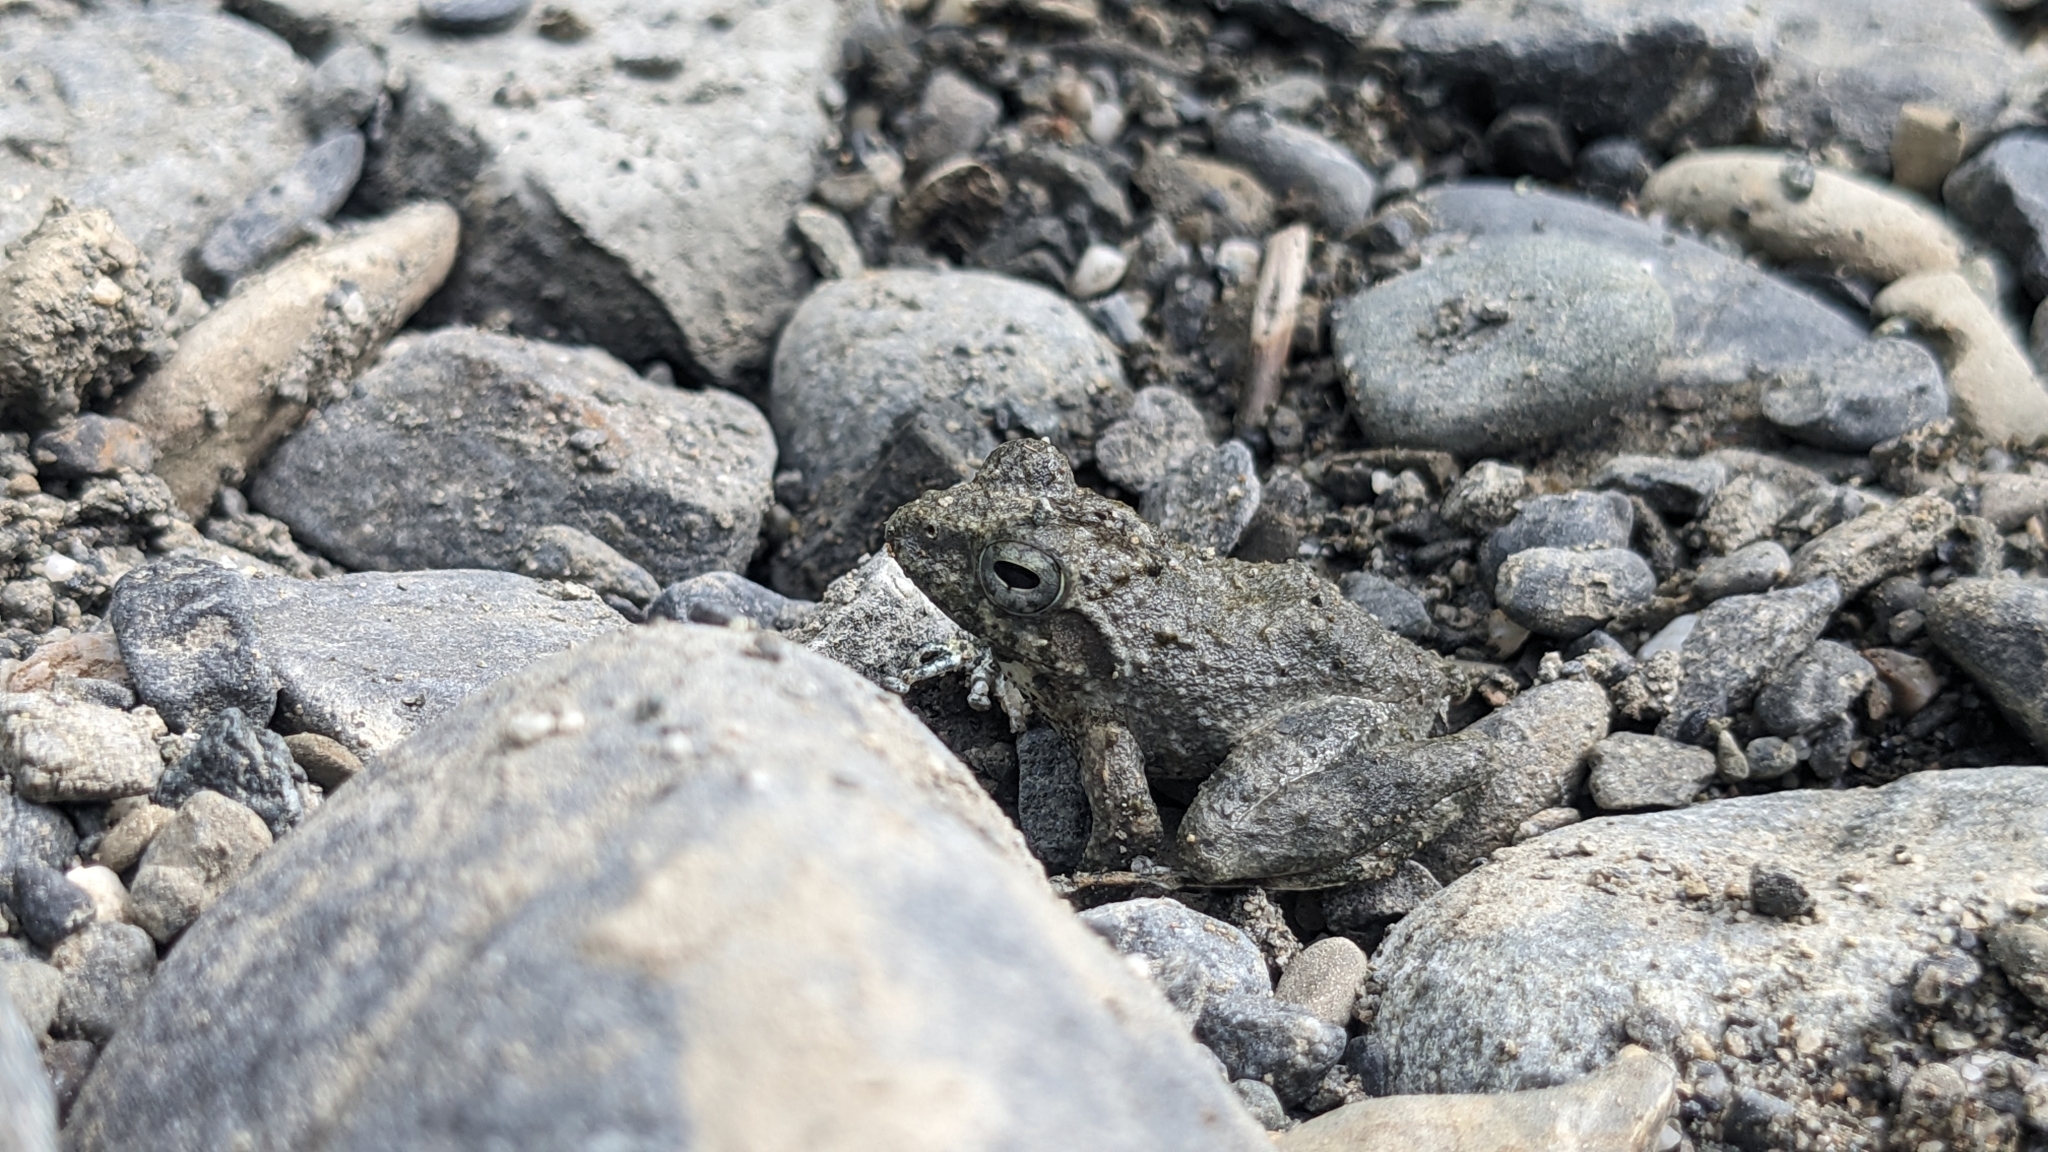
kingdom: Animalia
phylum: Chordata
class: Amphibia
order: Anura
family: Rhacophoridae
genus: Buergeria
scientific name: Buergeria otai
